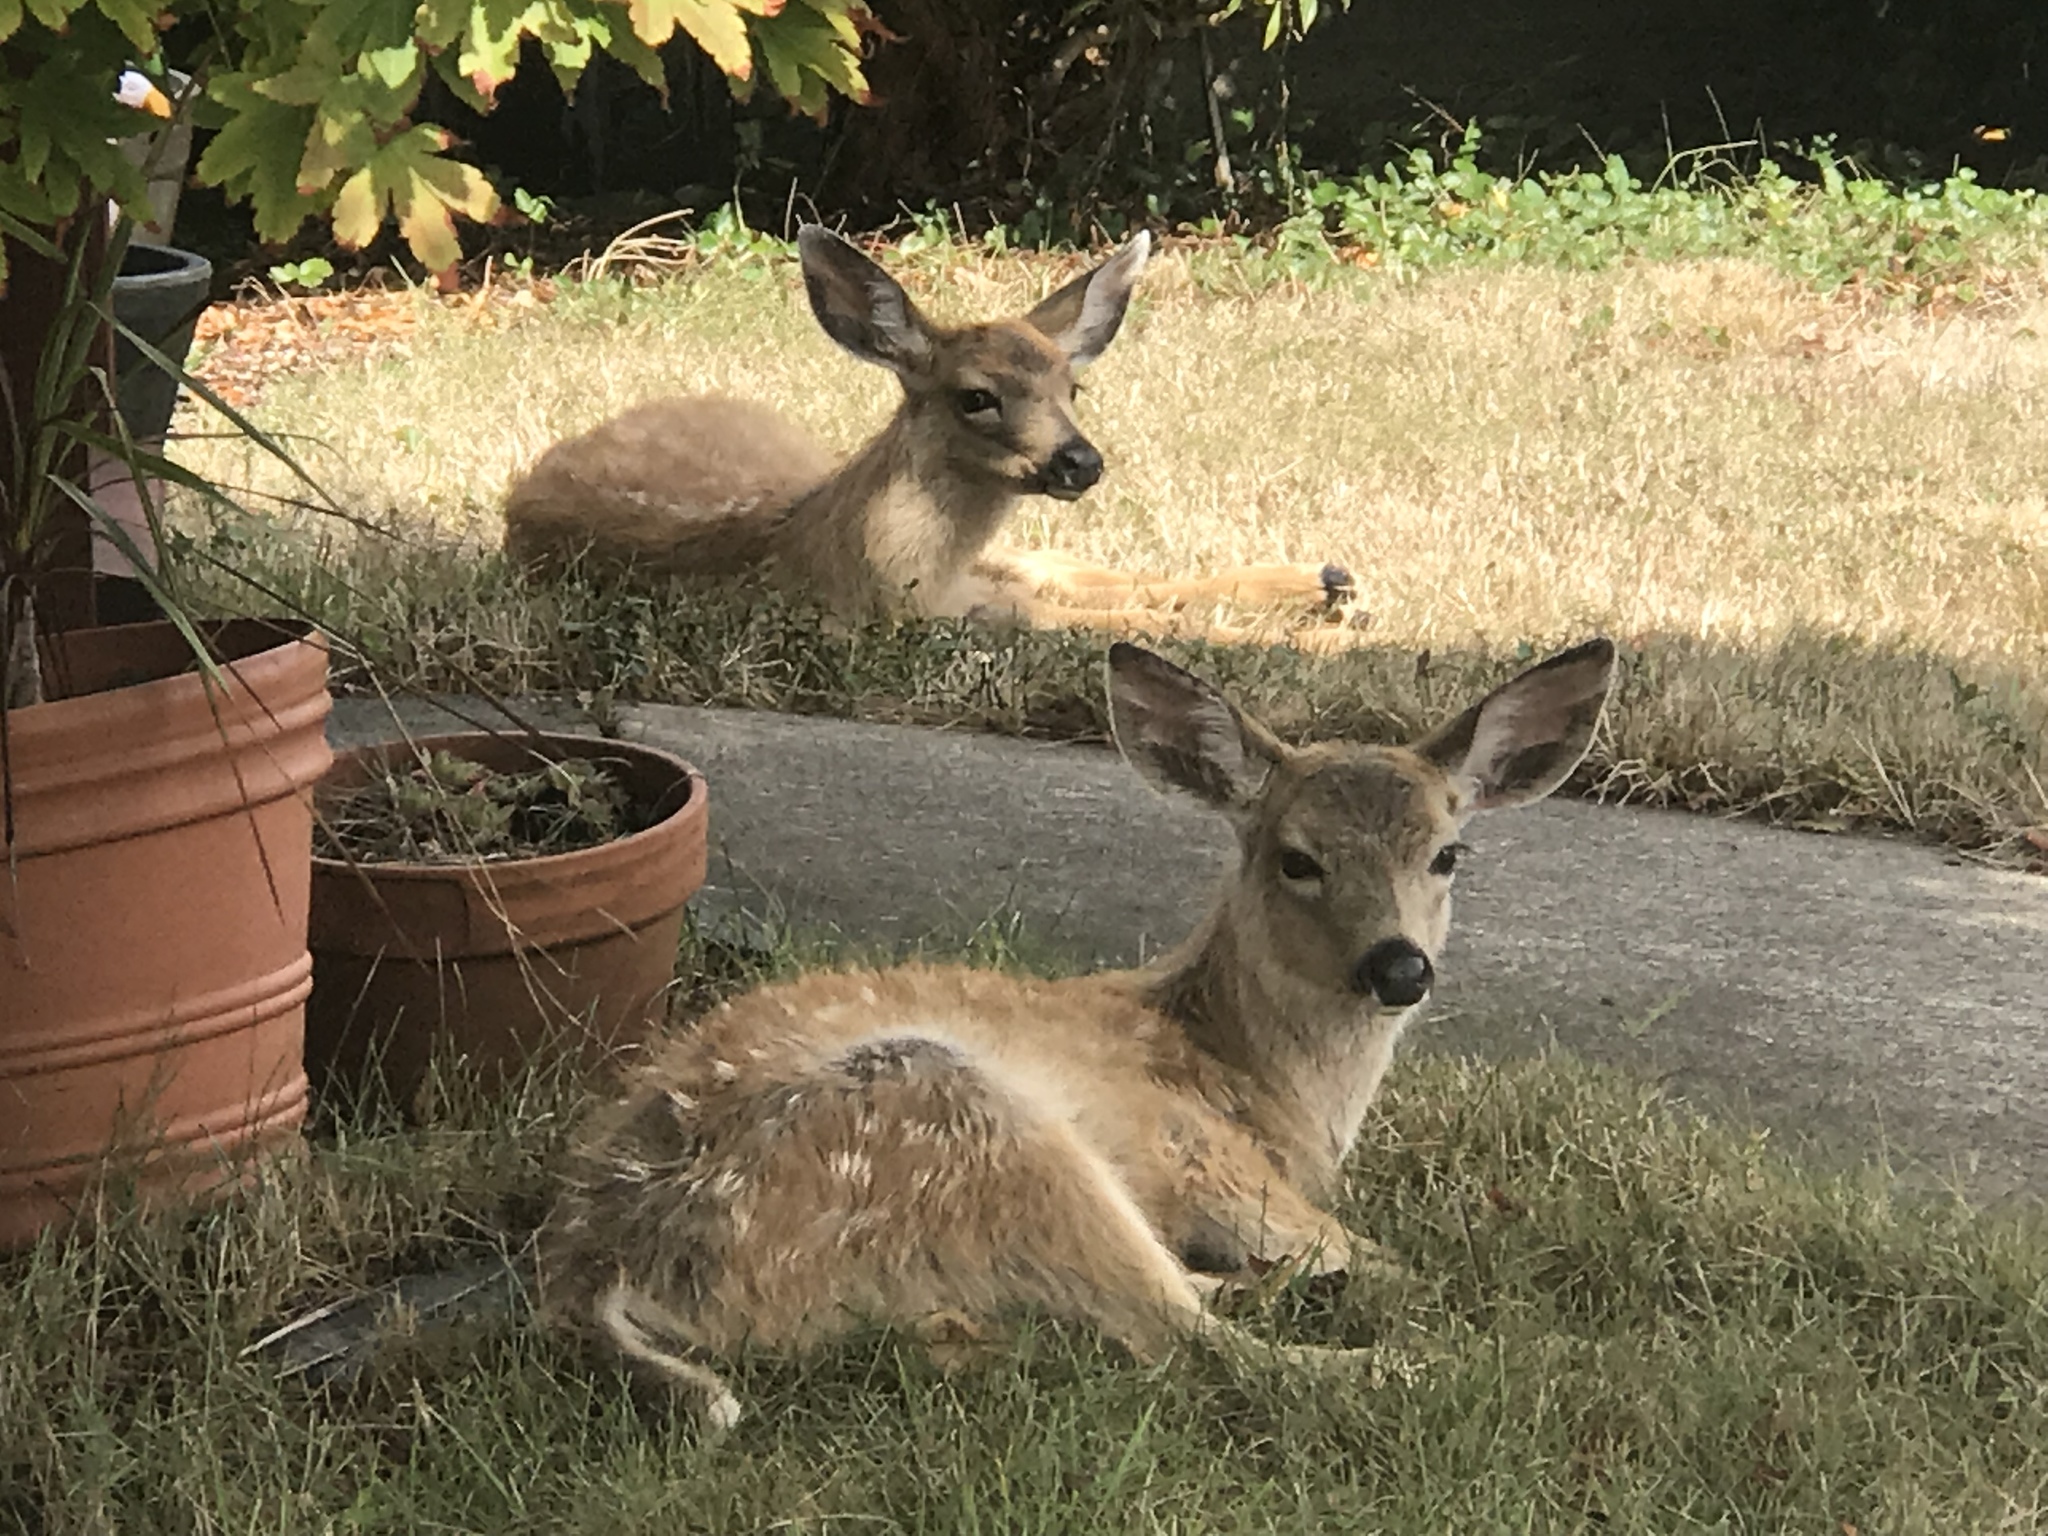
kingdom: Animalia
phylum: Chordata
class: Mammalia
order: Artiodactyla
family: Cervidae
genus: Odocoileus
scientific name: Odocoileus hemionus
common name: Mule deer
